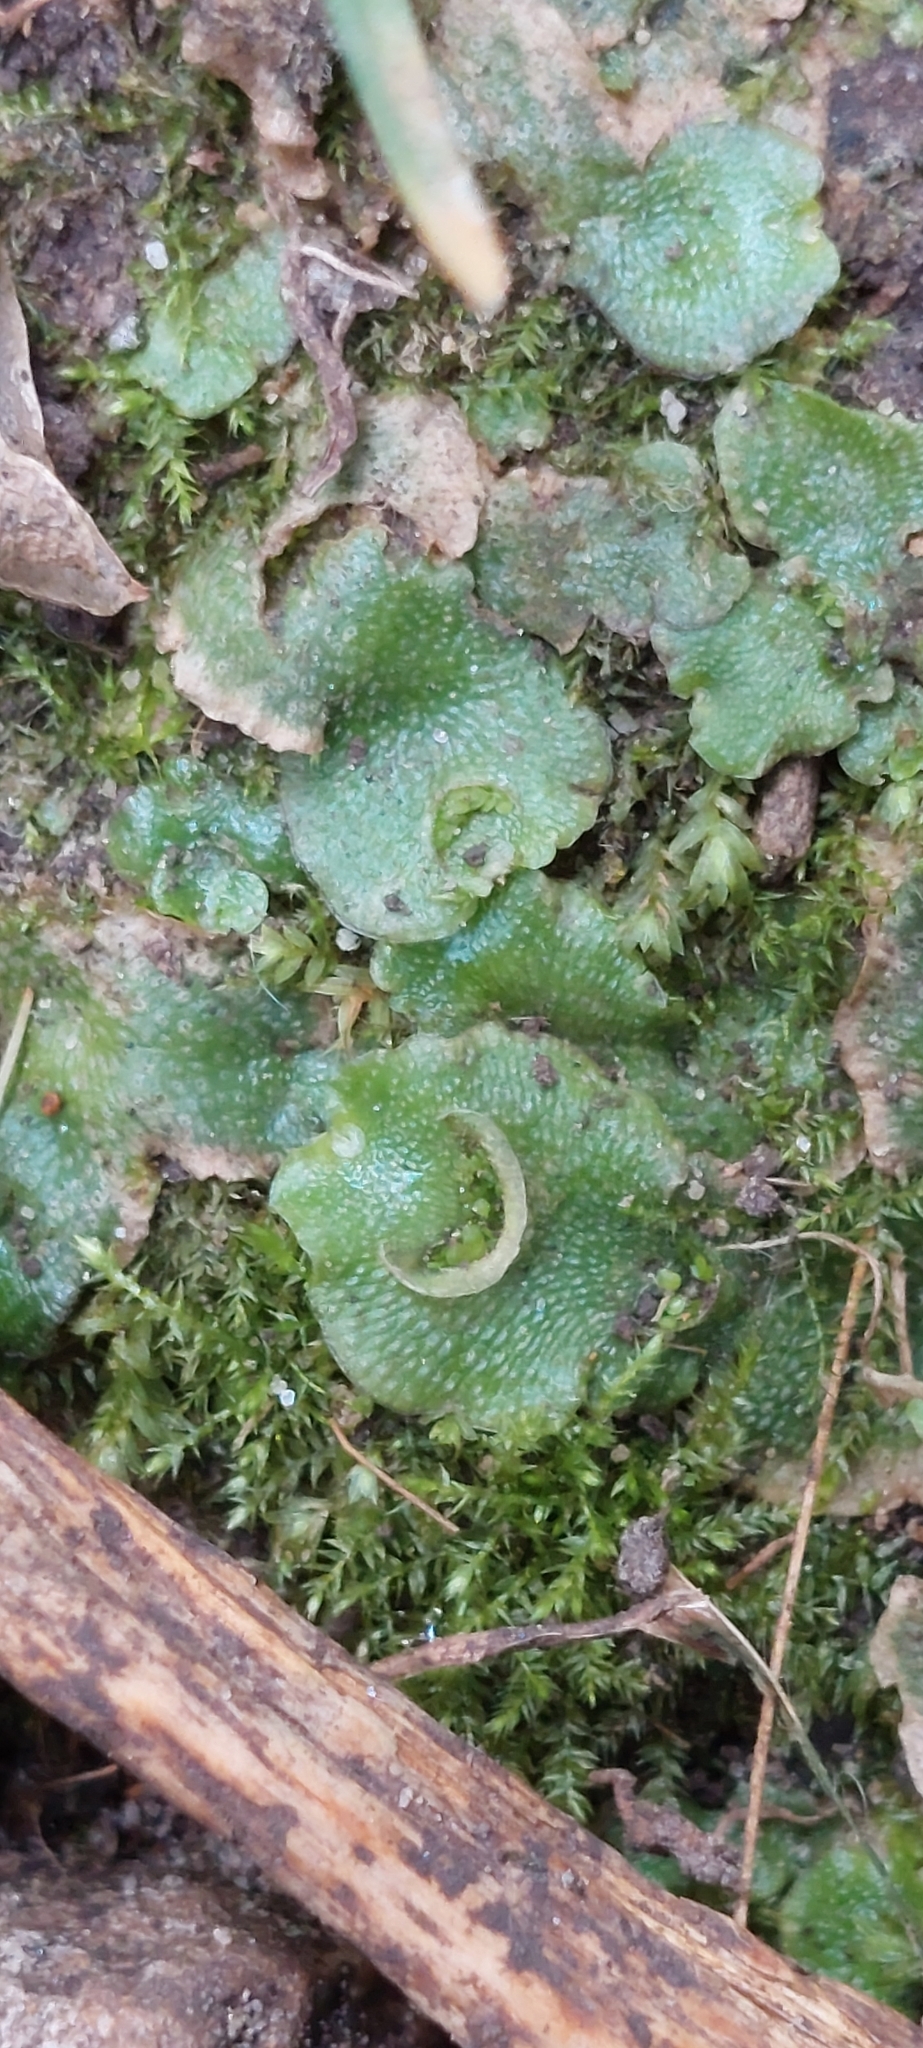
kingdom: Plantae
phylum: Marchantiophyta
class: Marchantiopsida
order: Lunulariales
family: Lunulariaceae
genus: Lunularia
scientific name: Lunularia cruciata
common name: Crescent-cup liverwort
